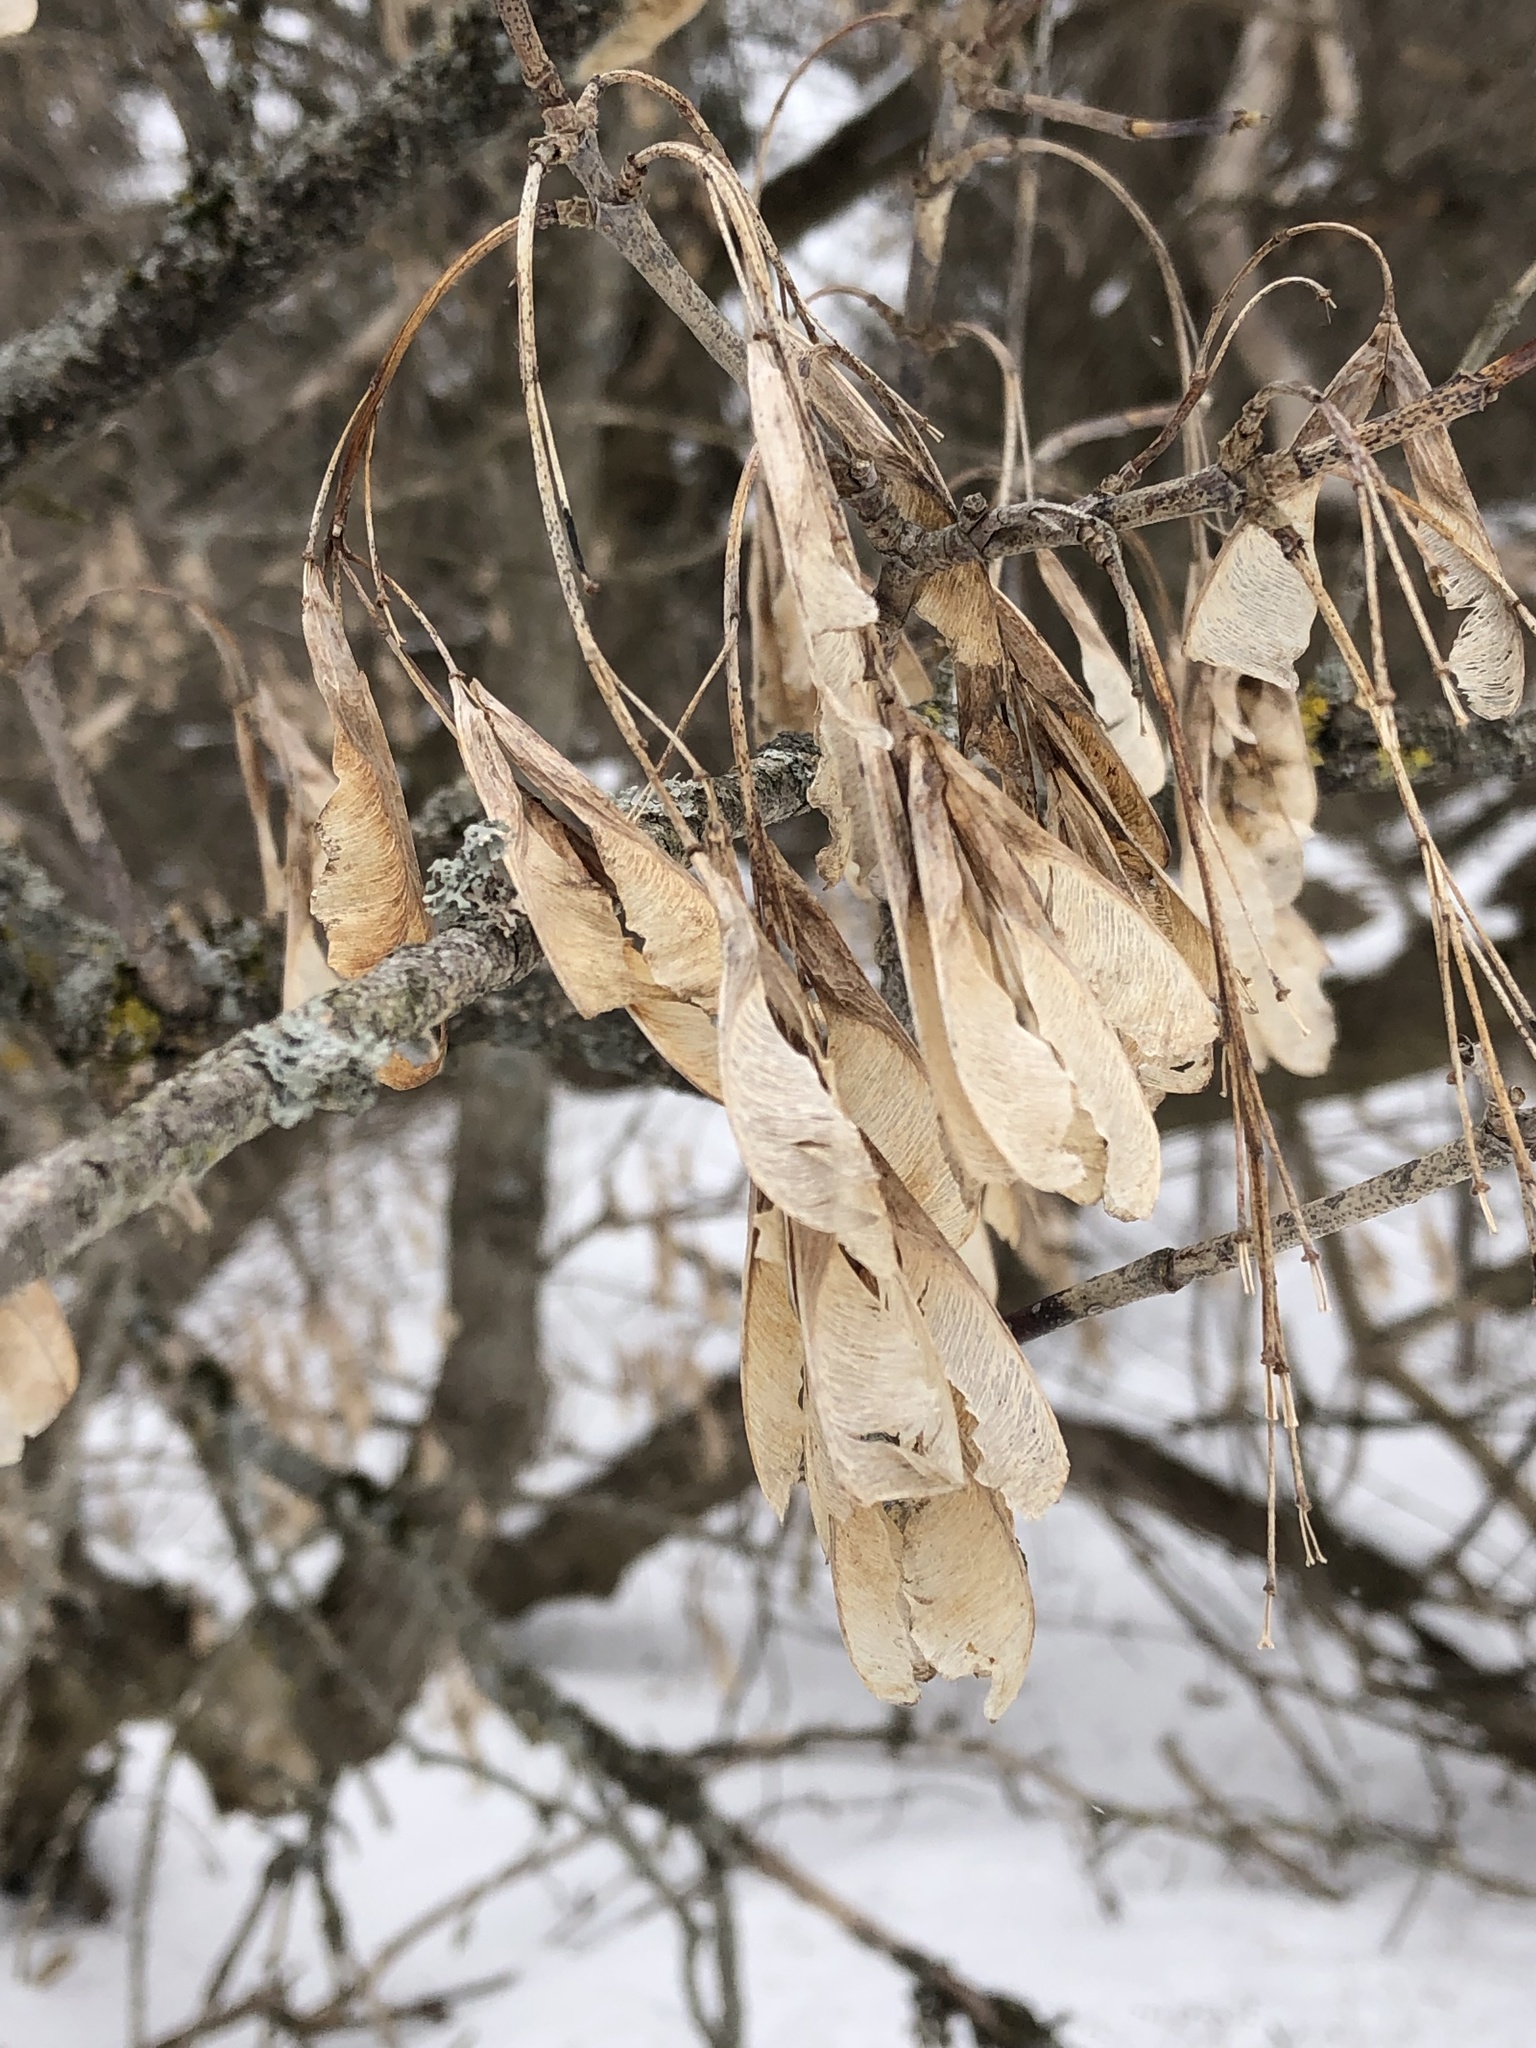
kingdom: Plantae
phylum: Tracheophyta
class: Magnoliopsida
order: Sapindales
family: Sapindaceae
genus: Acer
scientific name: Acer negundo
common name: Ashleaf maple
